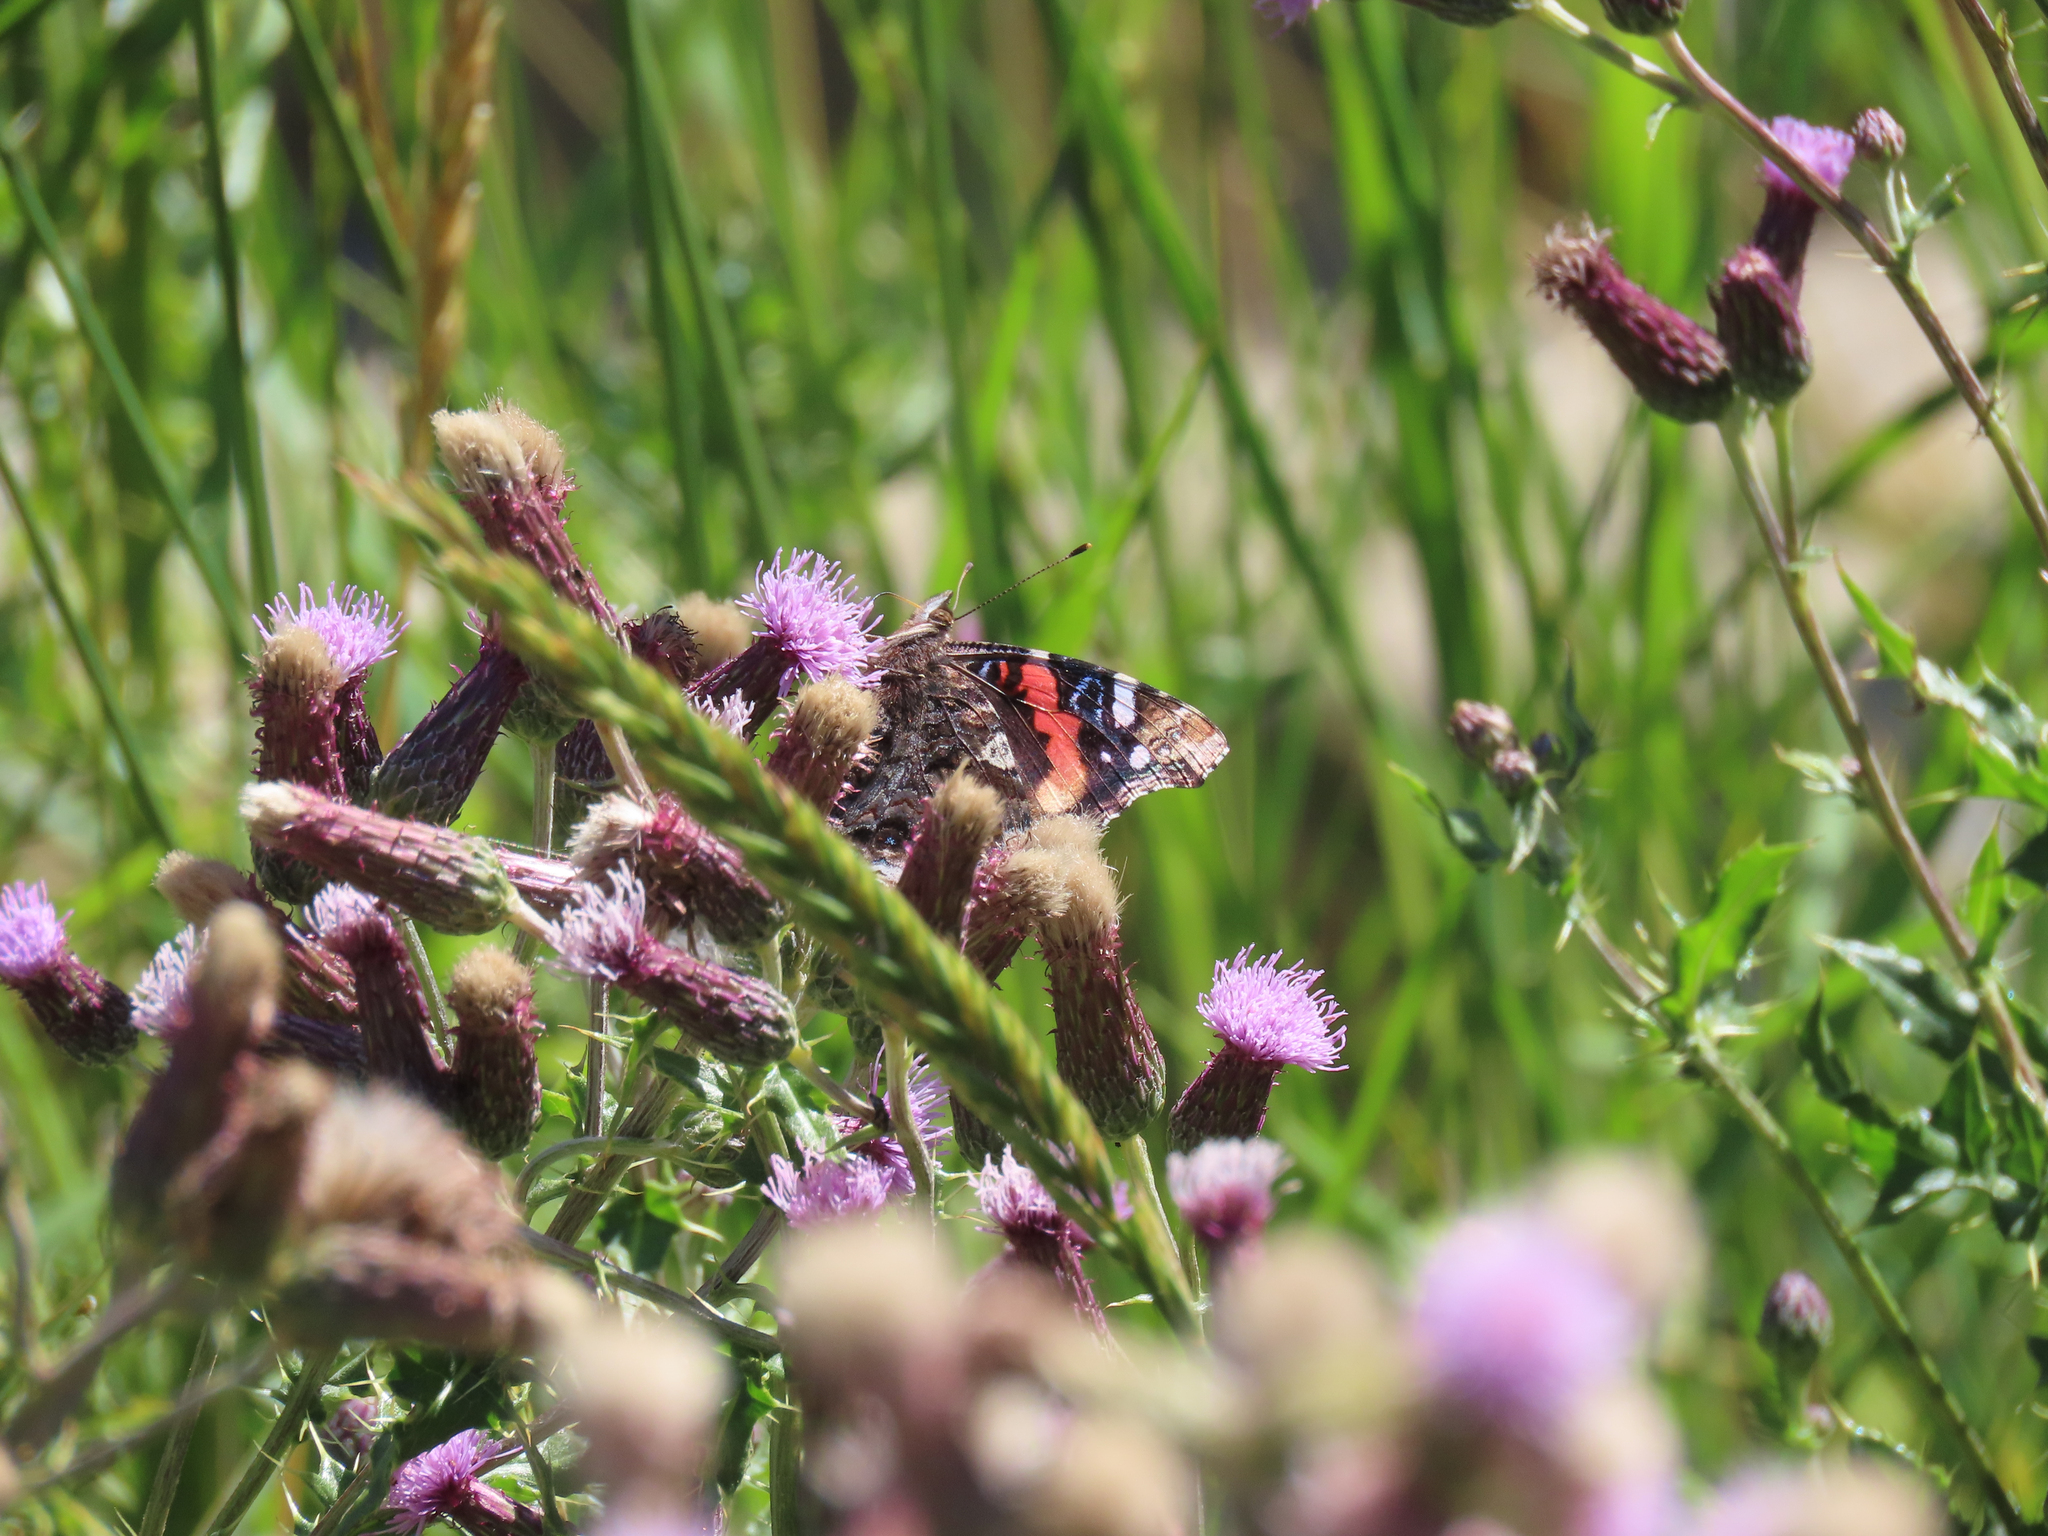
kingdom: Animalia
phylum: Arthropoda
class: Insecta
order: Lepidoptera
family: Nymphalidae
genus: Vanessa
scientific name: Vanessa atalanta
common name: Red admiral
